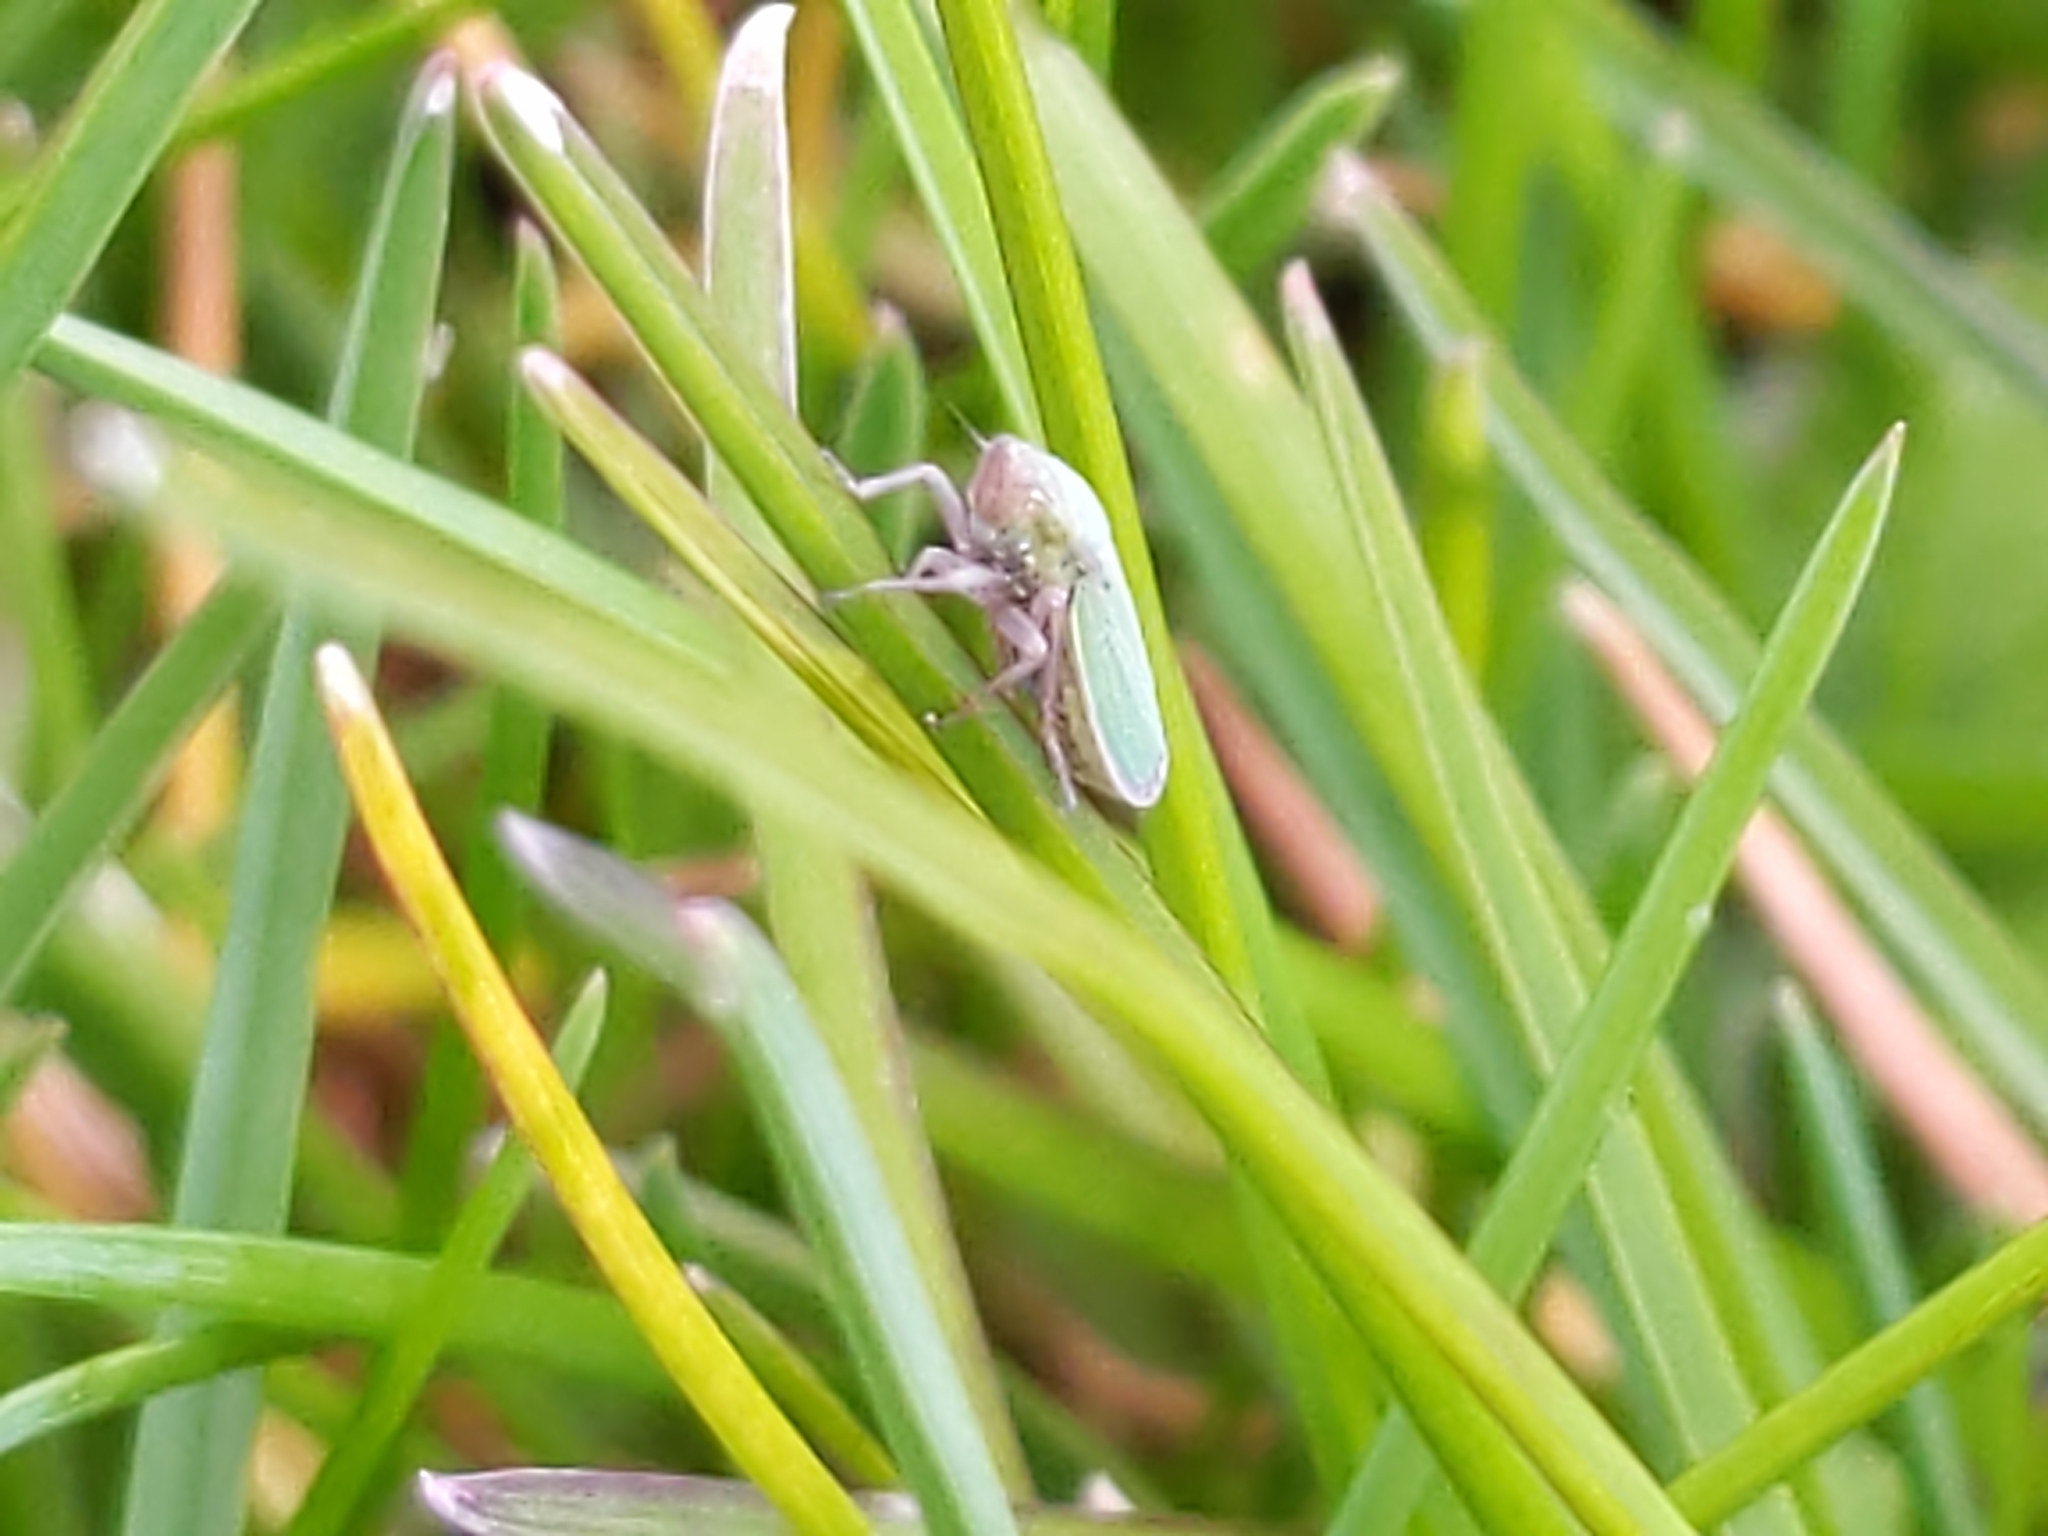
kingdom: Animalia
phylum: Arthropoda
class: Insecta
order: Hemiptera
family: Cicadellidae
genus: Helochara
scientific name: Helochara communis
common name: Bog leafhopper
